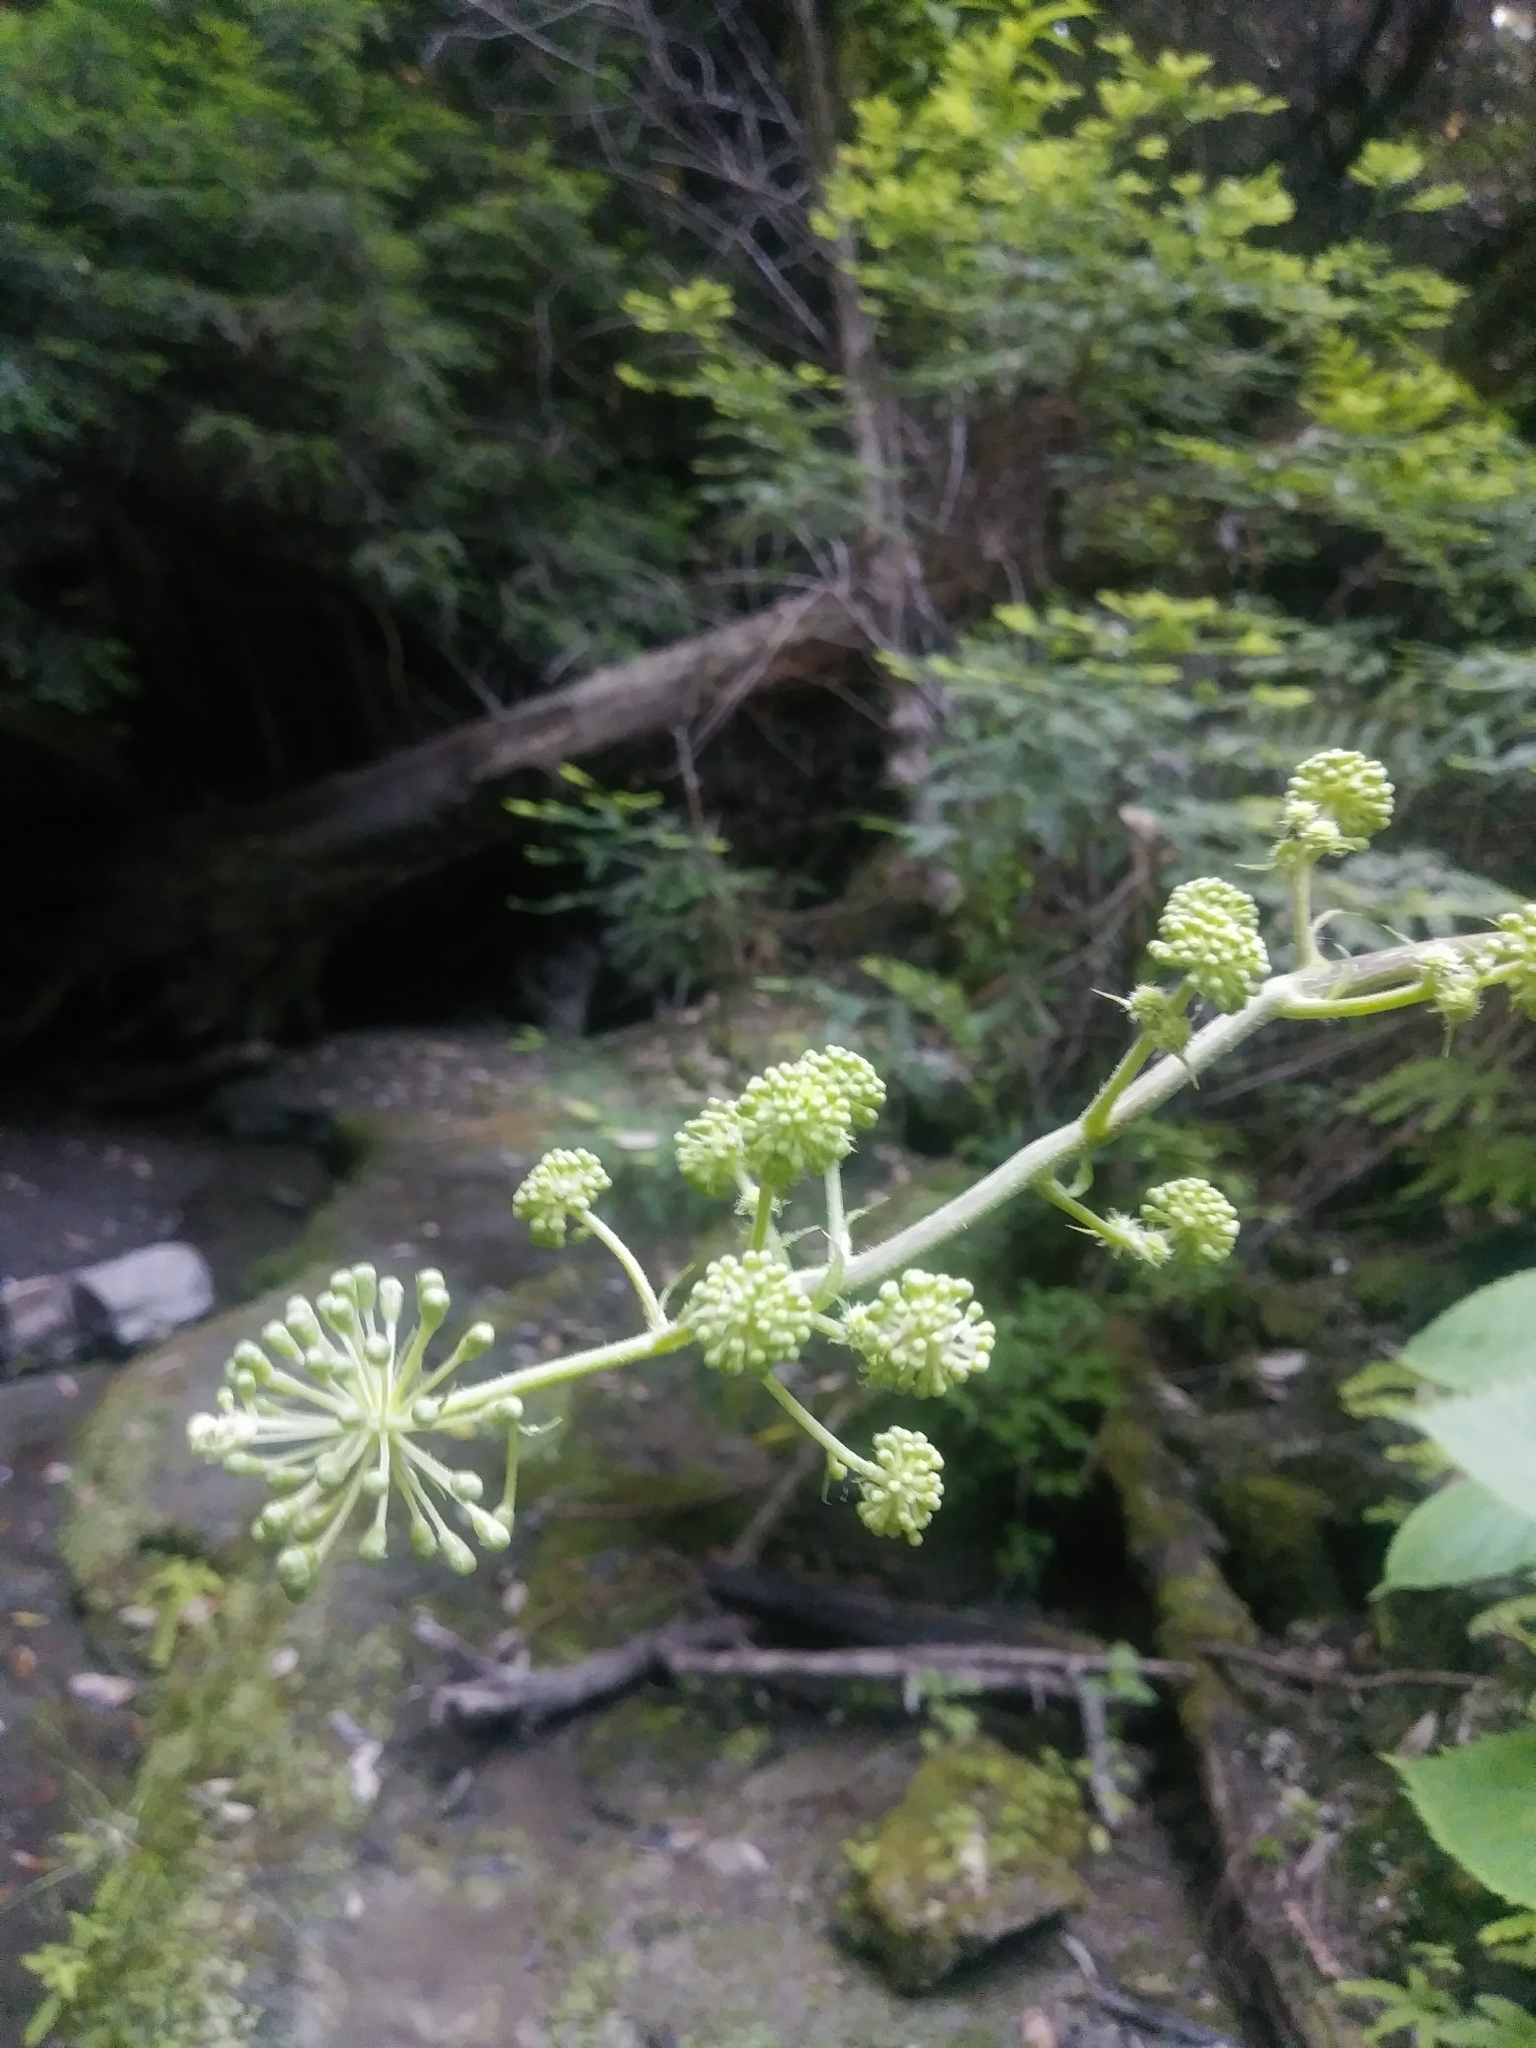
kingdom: Plantae
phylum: Tracheophyta
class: Magnoliopsida
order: Apiales
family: Araliaceae
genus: Aralia
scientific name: Aralia californica
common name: California-ginseng
